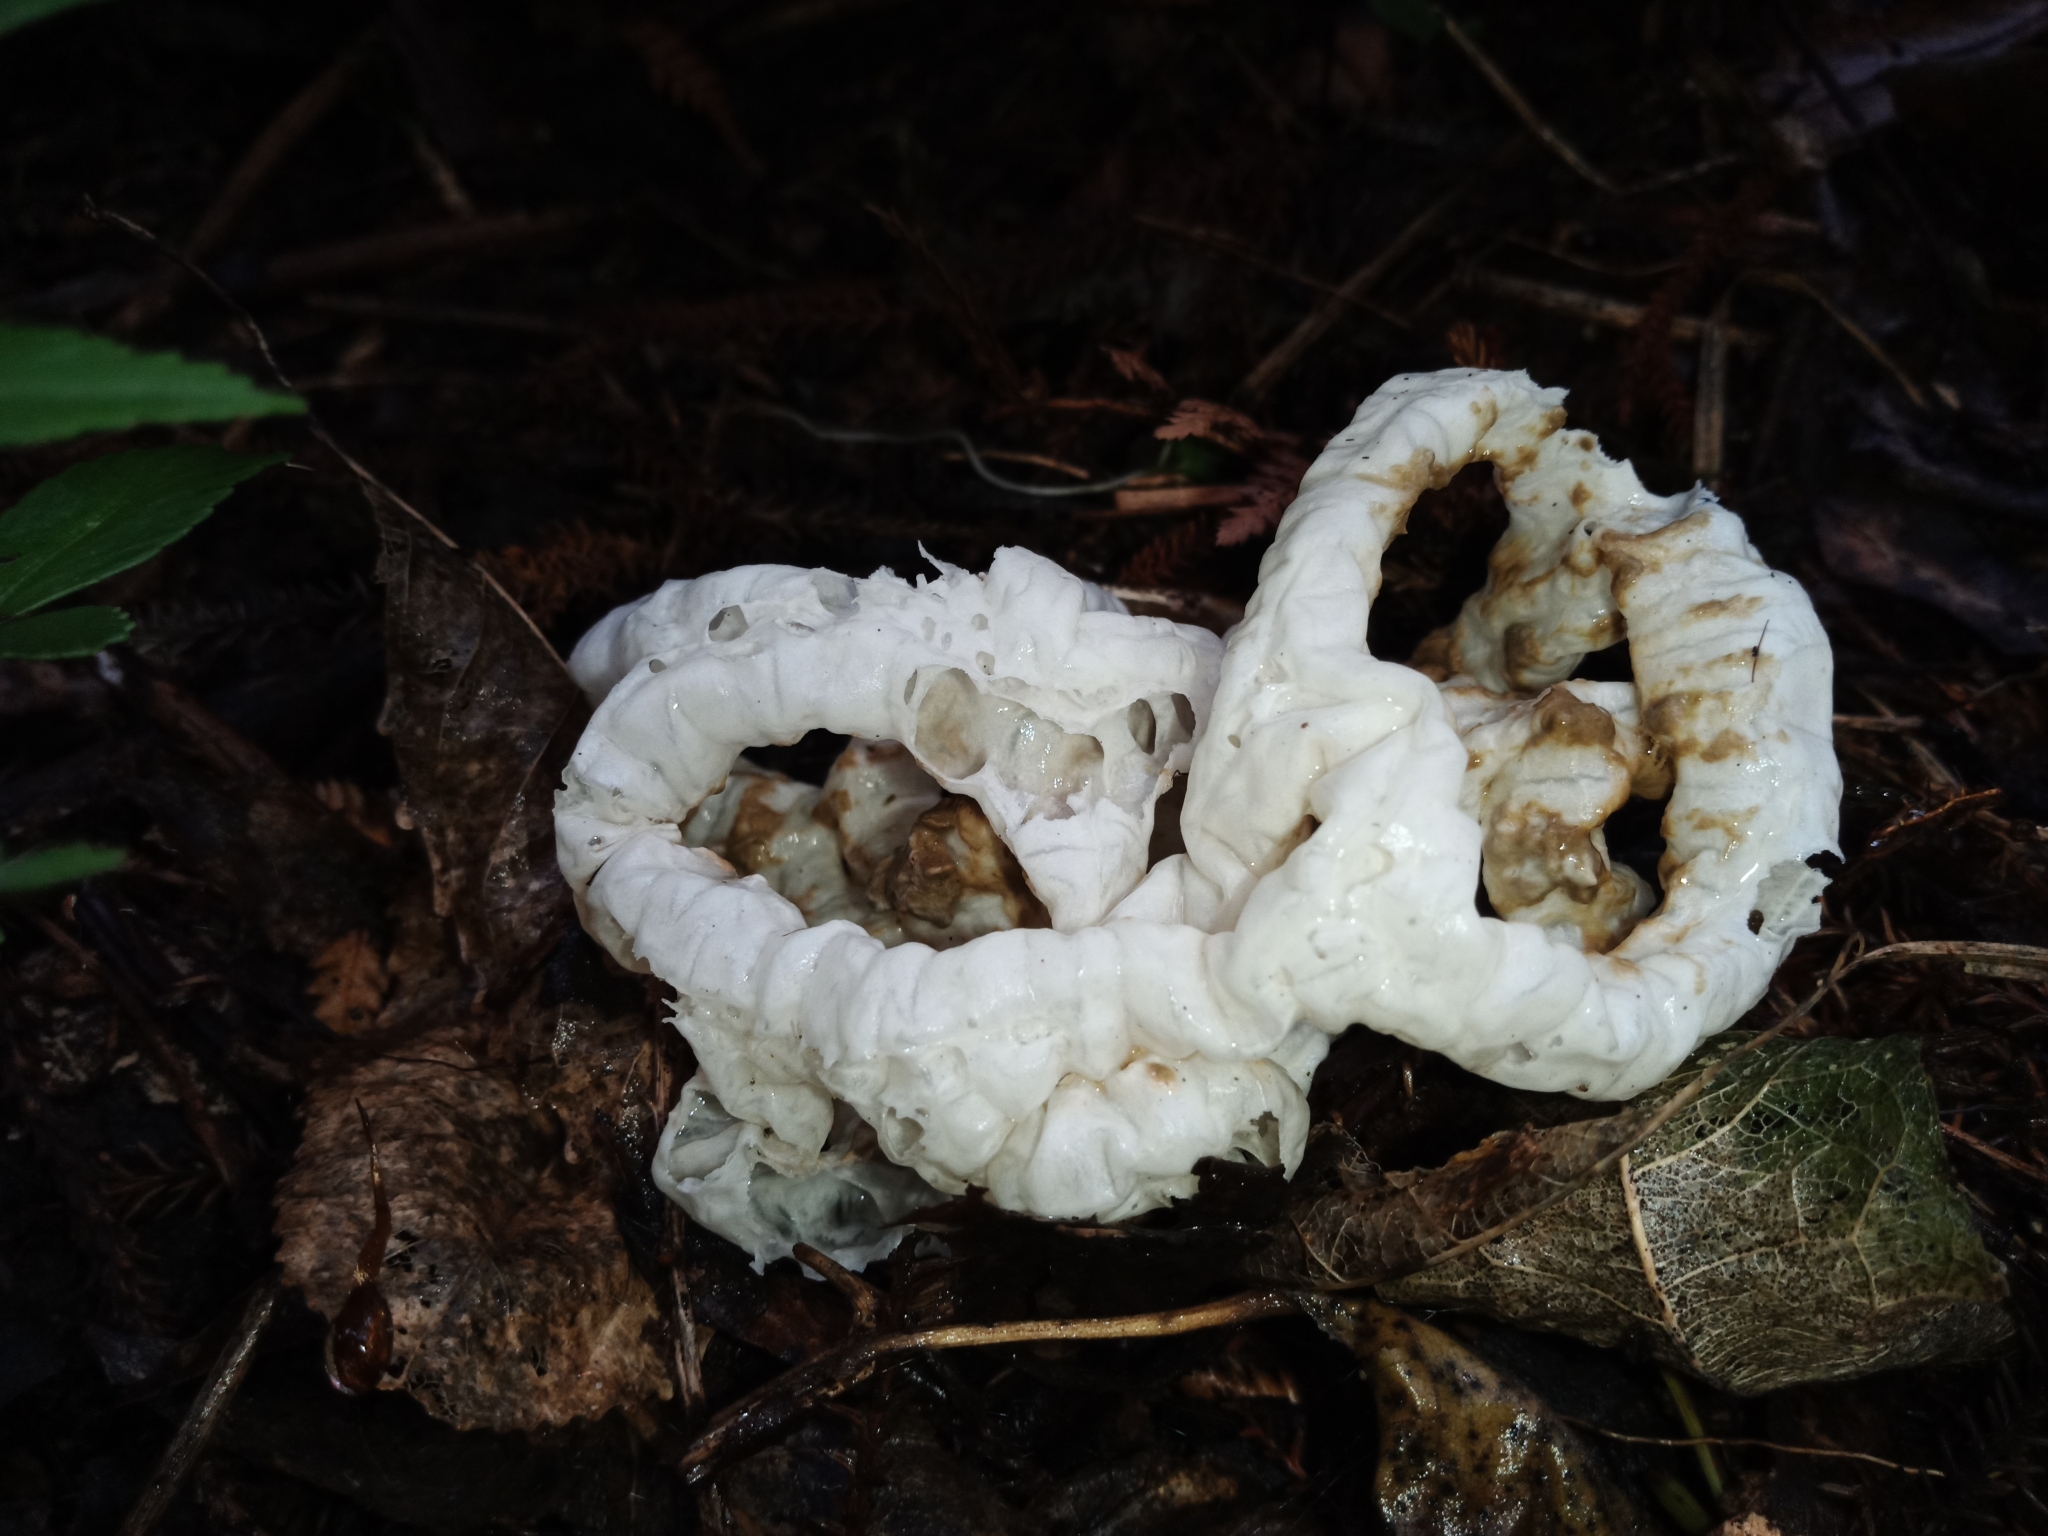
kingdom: Fungi
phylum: Basidiomycota
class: Agaricomycetes
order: Phallales
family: Phallaceae
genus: Ileodictyon
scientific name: Ileodictyon cibarium
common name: Basket fungus
